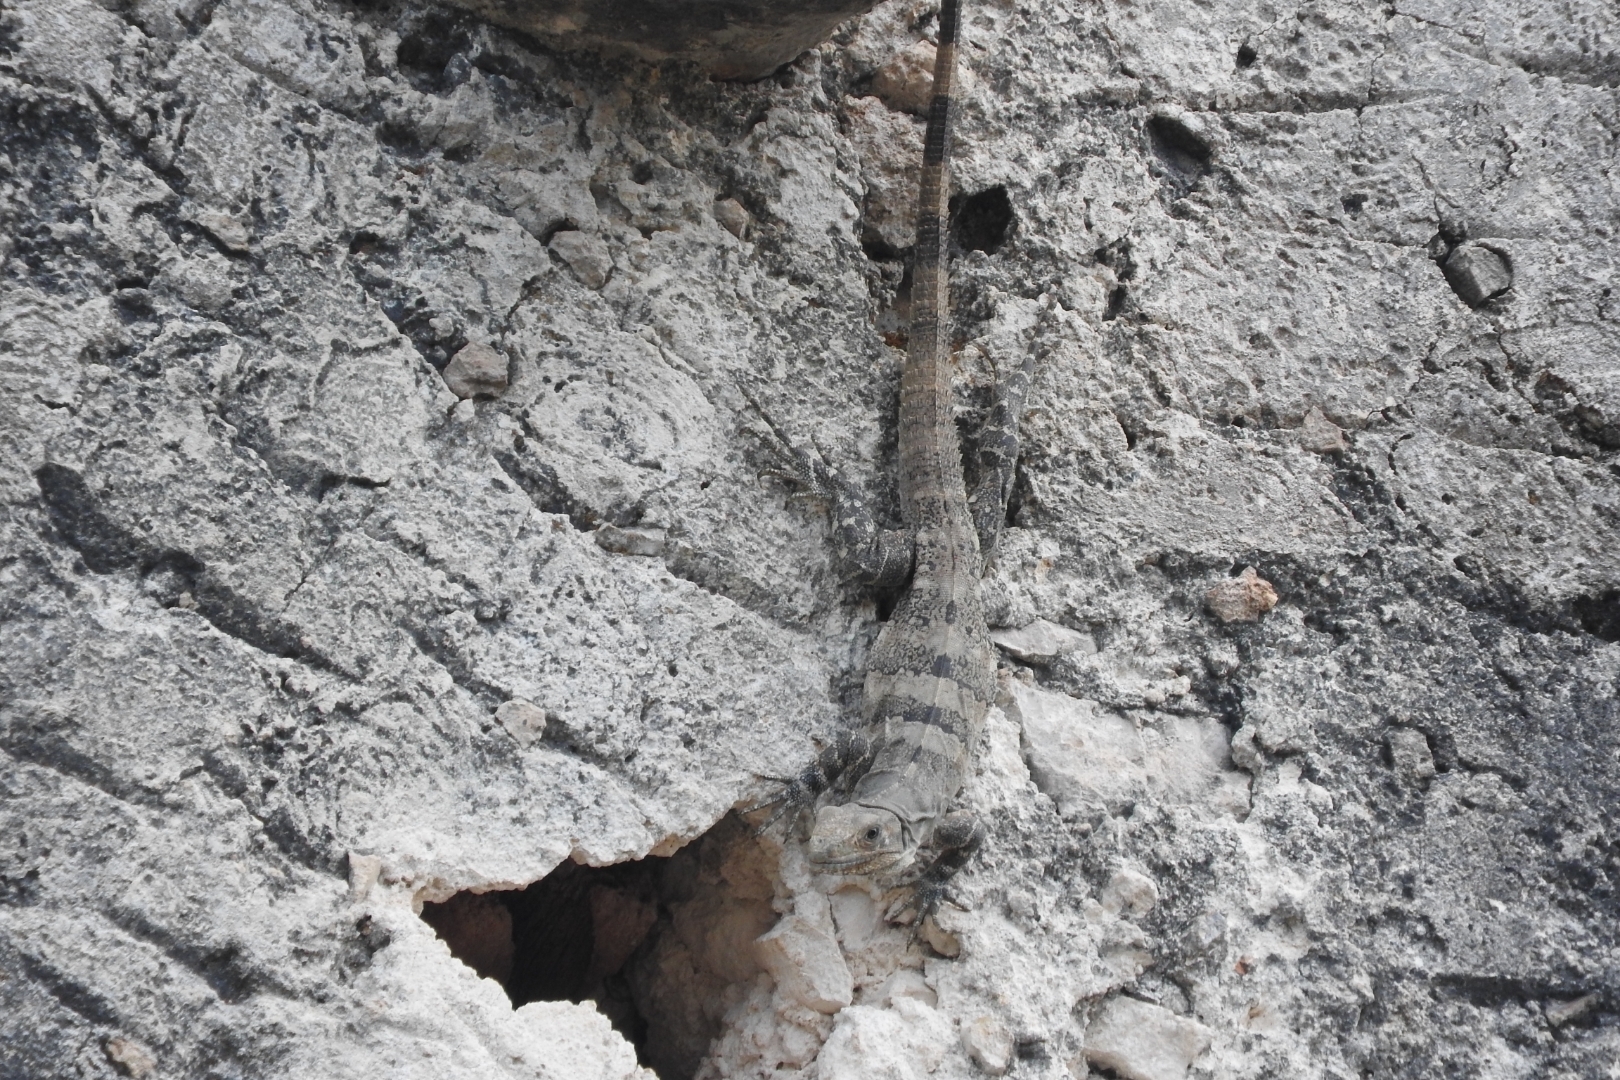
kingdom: Animalia
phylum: Chordata
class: Squamata
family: Iguanidae
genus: Ctenosaura
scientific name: Ctenosaura similis
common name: Black spiny-tailed iguana
